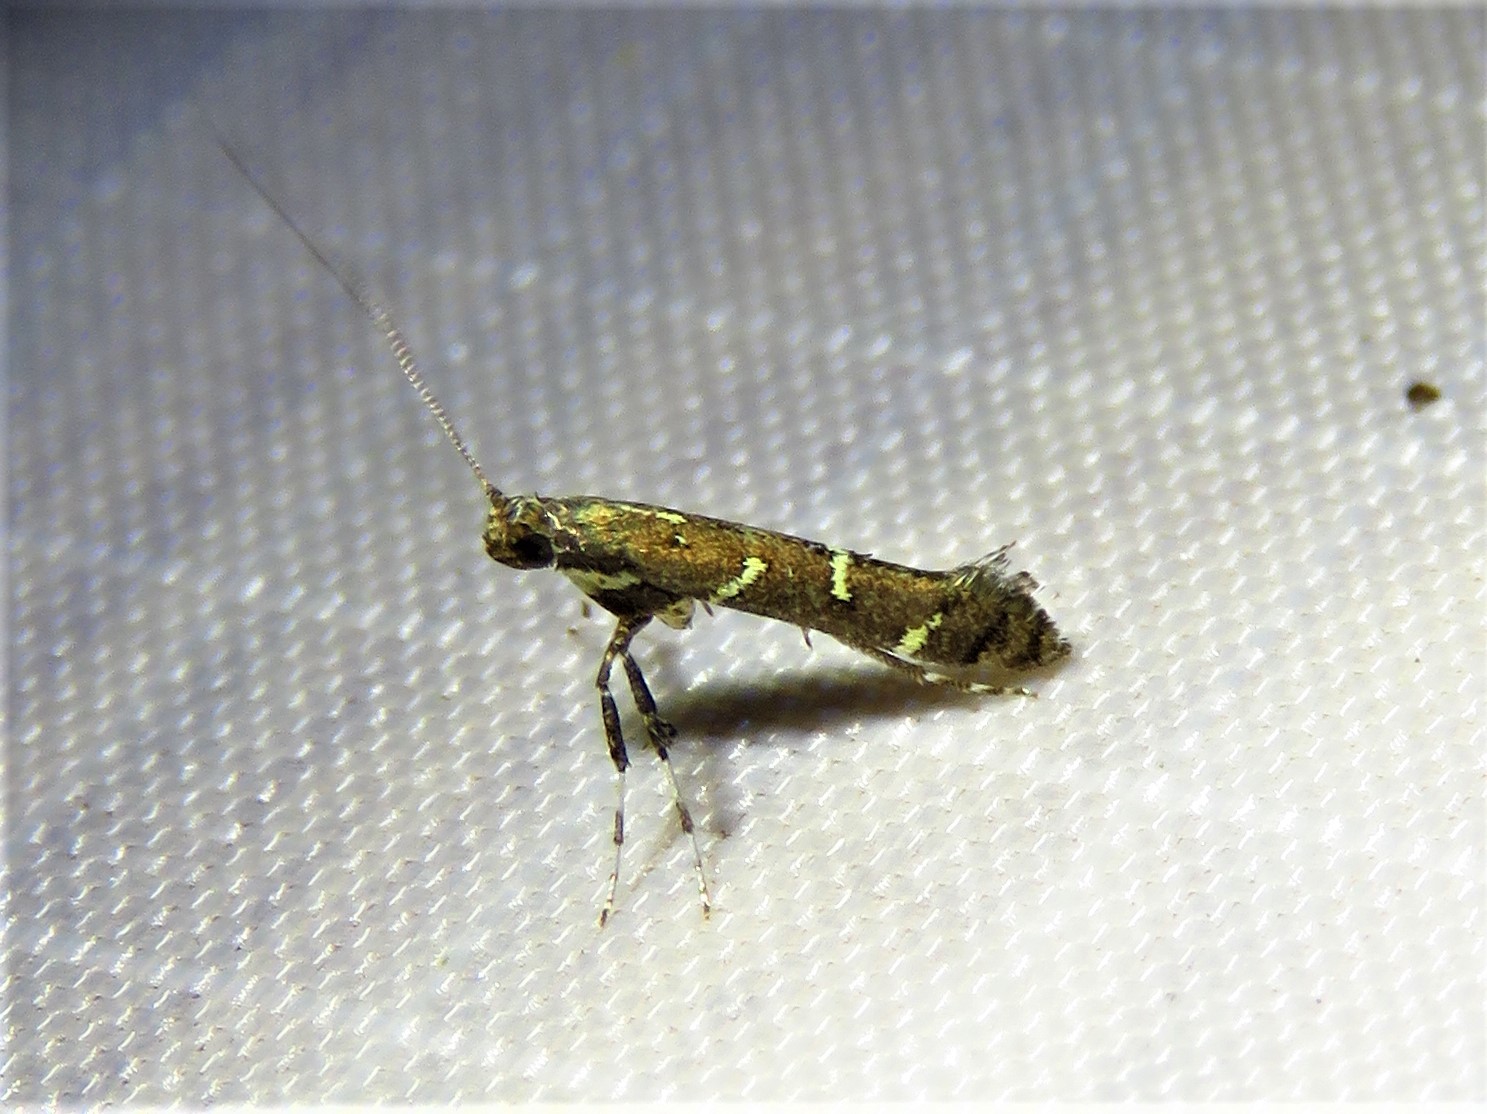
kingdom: Animalia
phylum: Arthropoda
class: Insecta
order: Lepidoptera
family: Gracillariidae
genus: Caloptilia
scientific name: Caloptilia triadicae
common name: Tallow leaf roller
